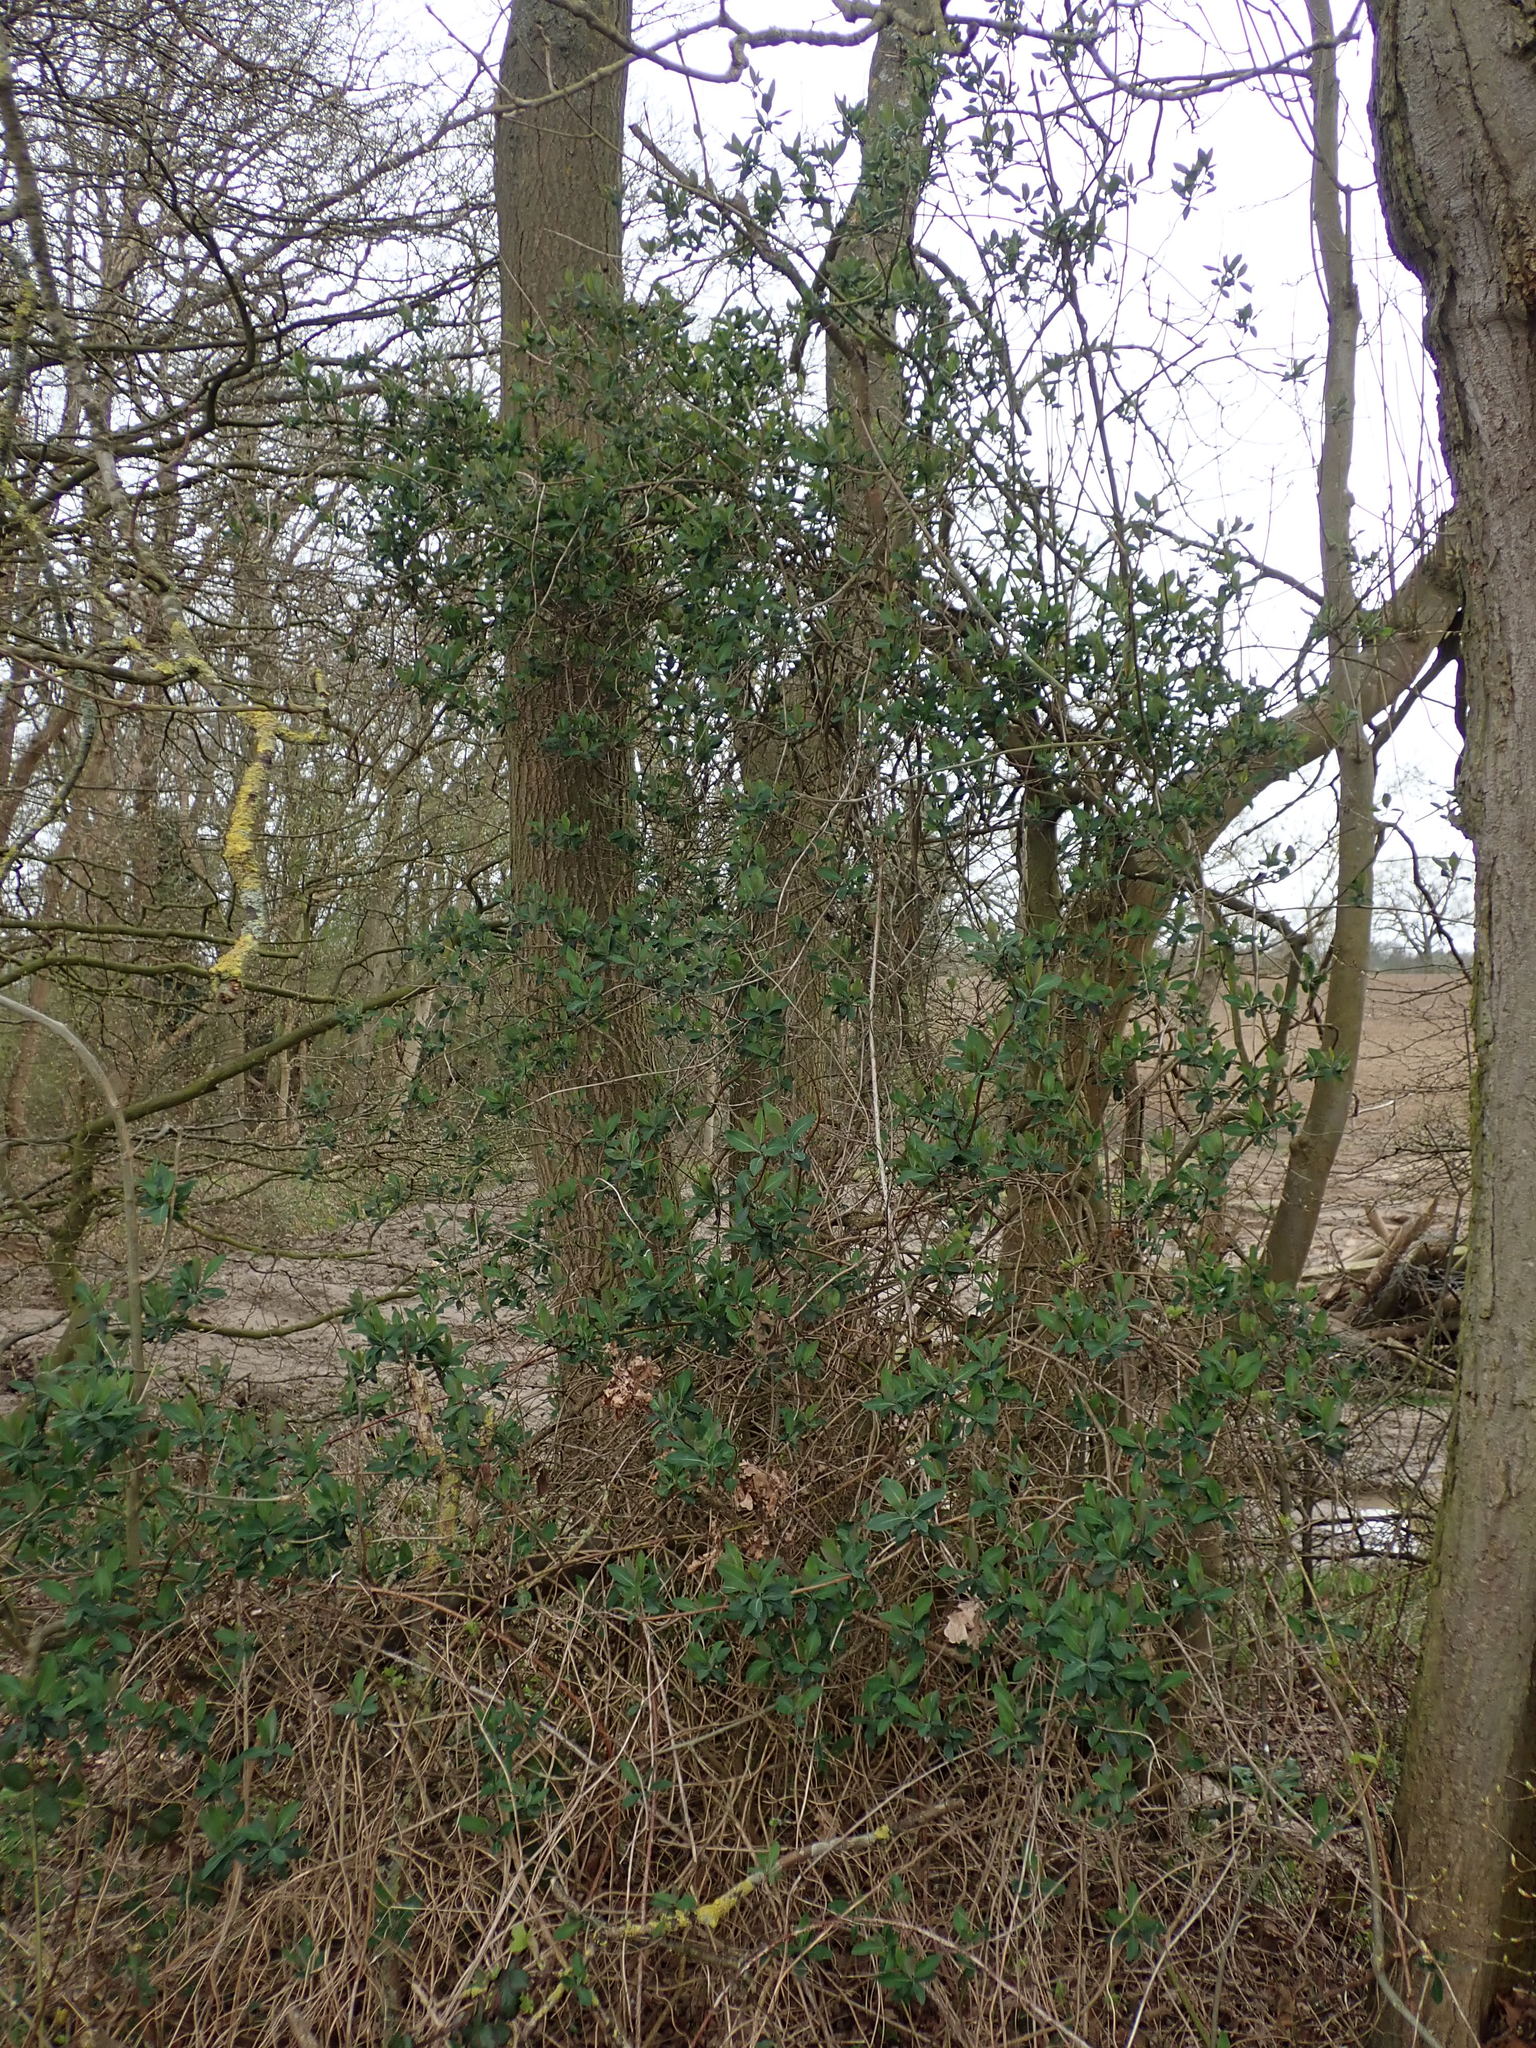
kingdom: Plantae
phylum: Tracheophyta
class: Magnoliopsida
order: Dipsacales
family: Caprifoliaceae
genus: Lonicera
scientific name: Lonicera periclymenum
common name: European honeysuckle
